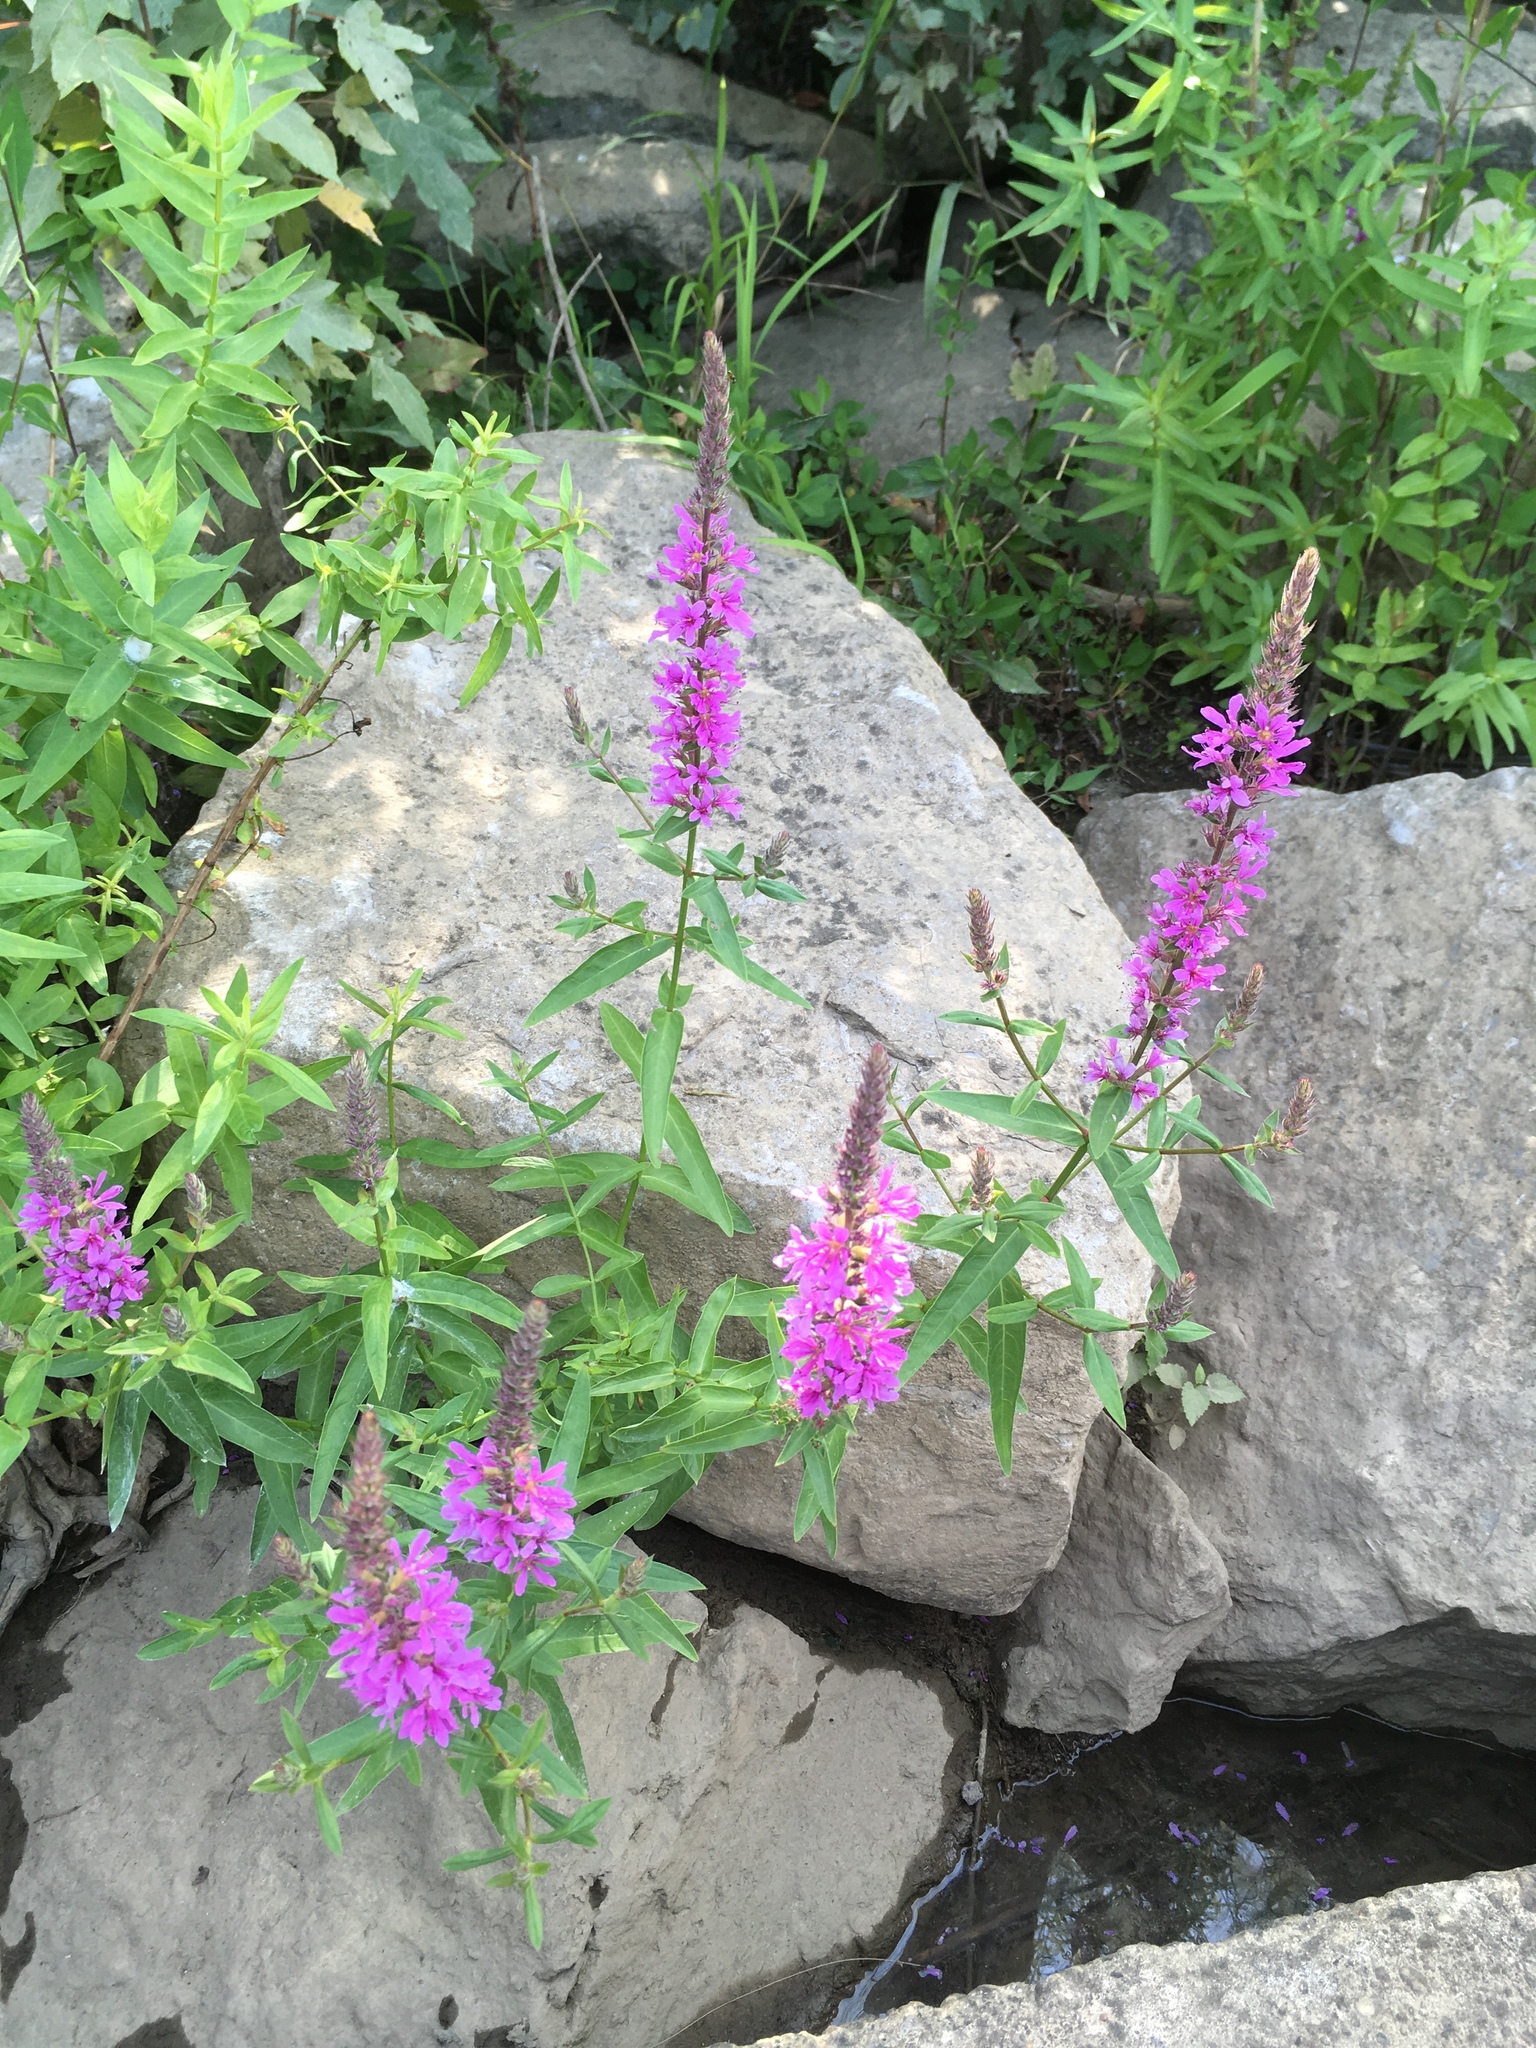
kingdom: Plantae
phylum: Tracheophyta
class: Magnoliopsida
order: Myrtales
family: Lythraceae
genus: Lythrum
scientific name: Lythrum salicaria
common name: Purple loosestrife
